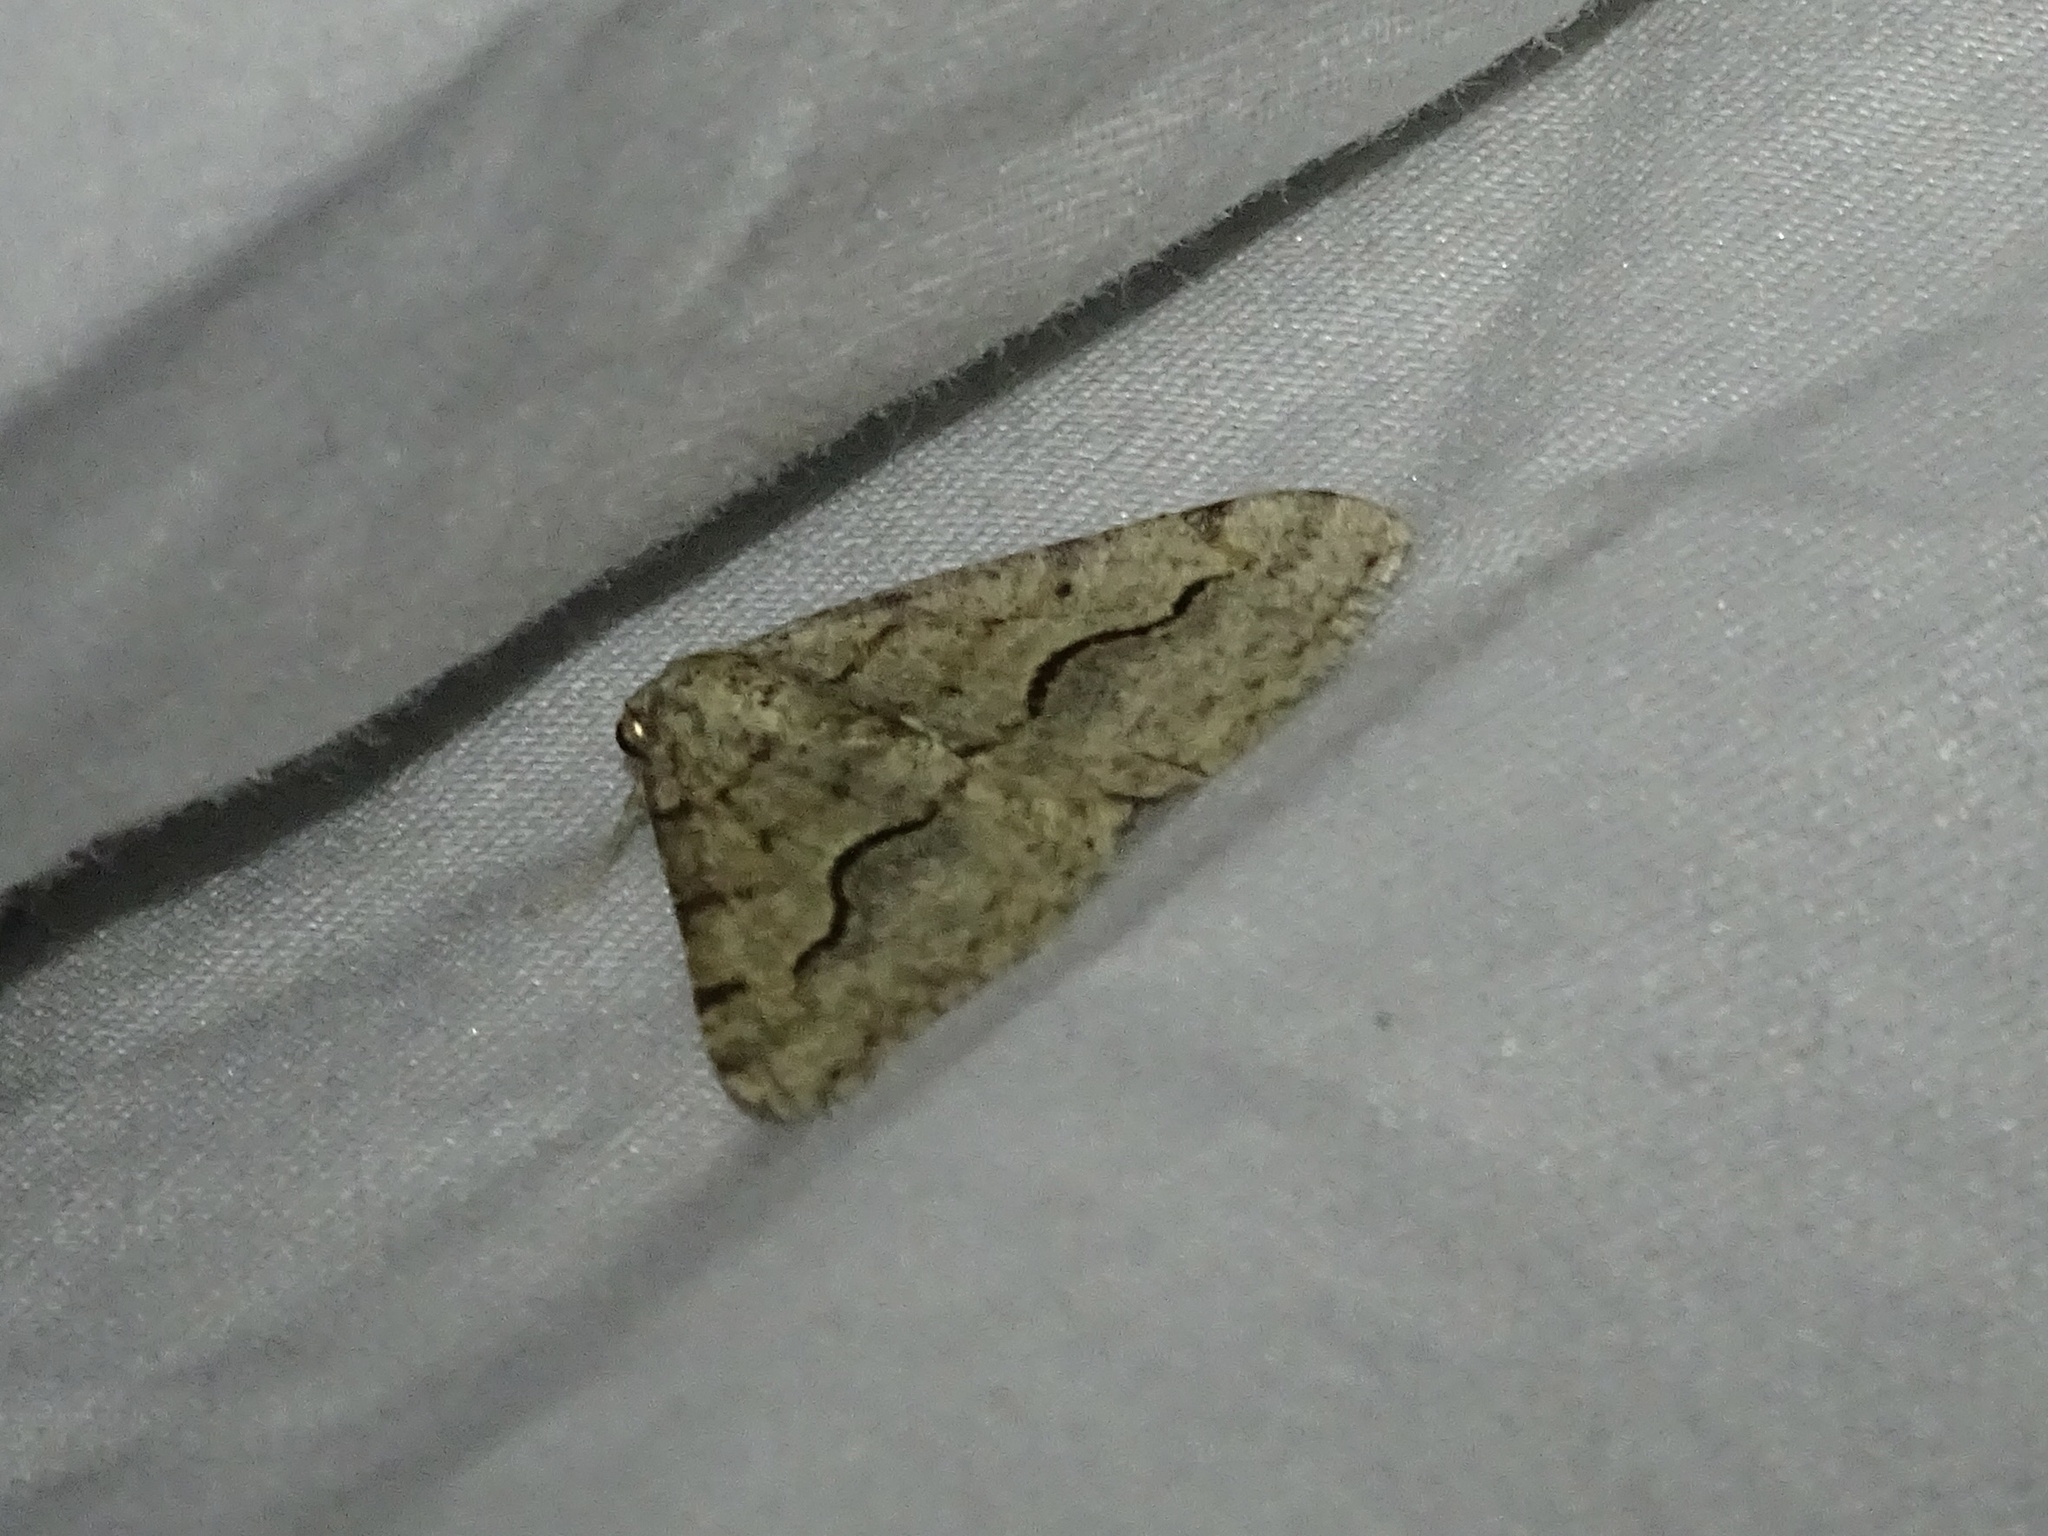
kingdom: Animalia
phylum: Arthropoda
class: Insecta
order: Lepidoptera
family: Geometridae
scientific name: Geometridae
